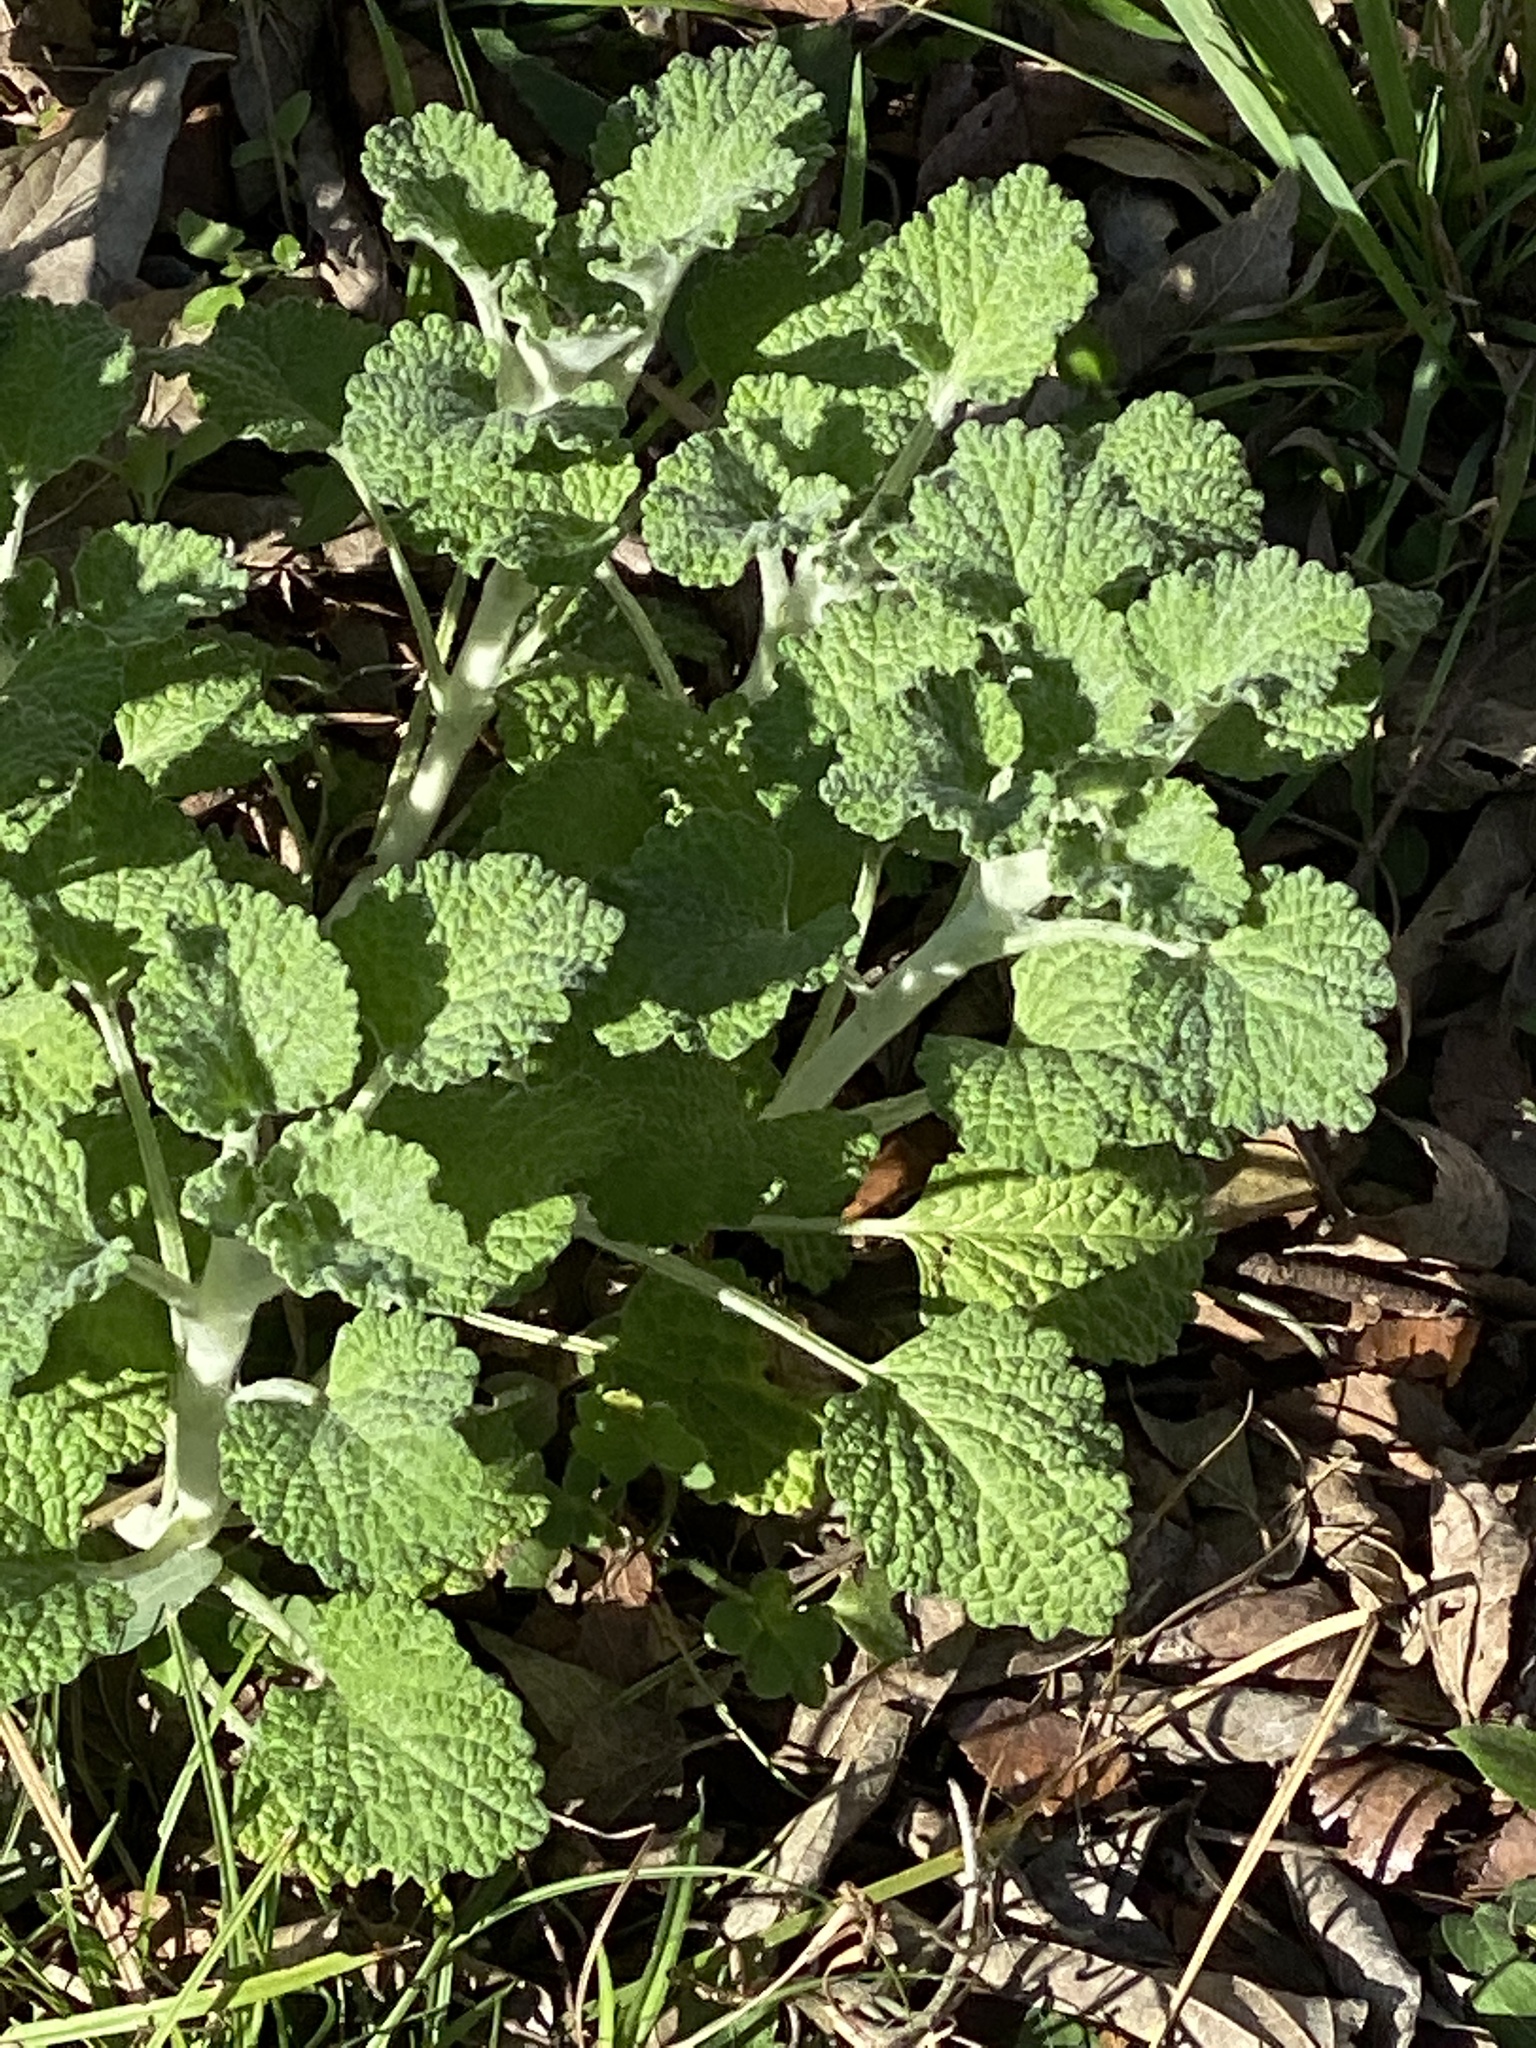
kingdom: Plantae
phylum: Tracheophyta
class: Magnoliopsida
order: Lamiales
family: Lamiaceae
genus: Marrubium
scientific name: Marrubium vulgare
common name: Horehound
